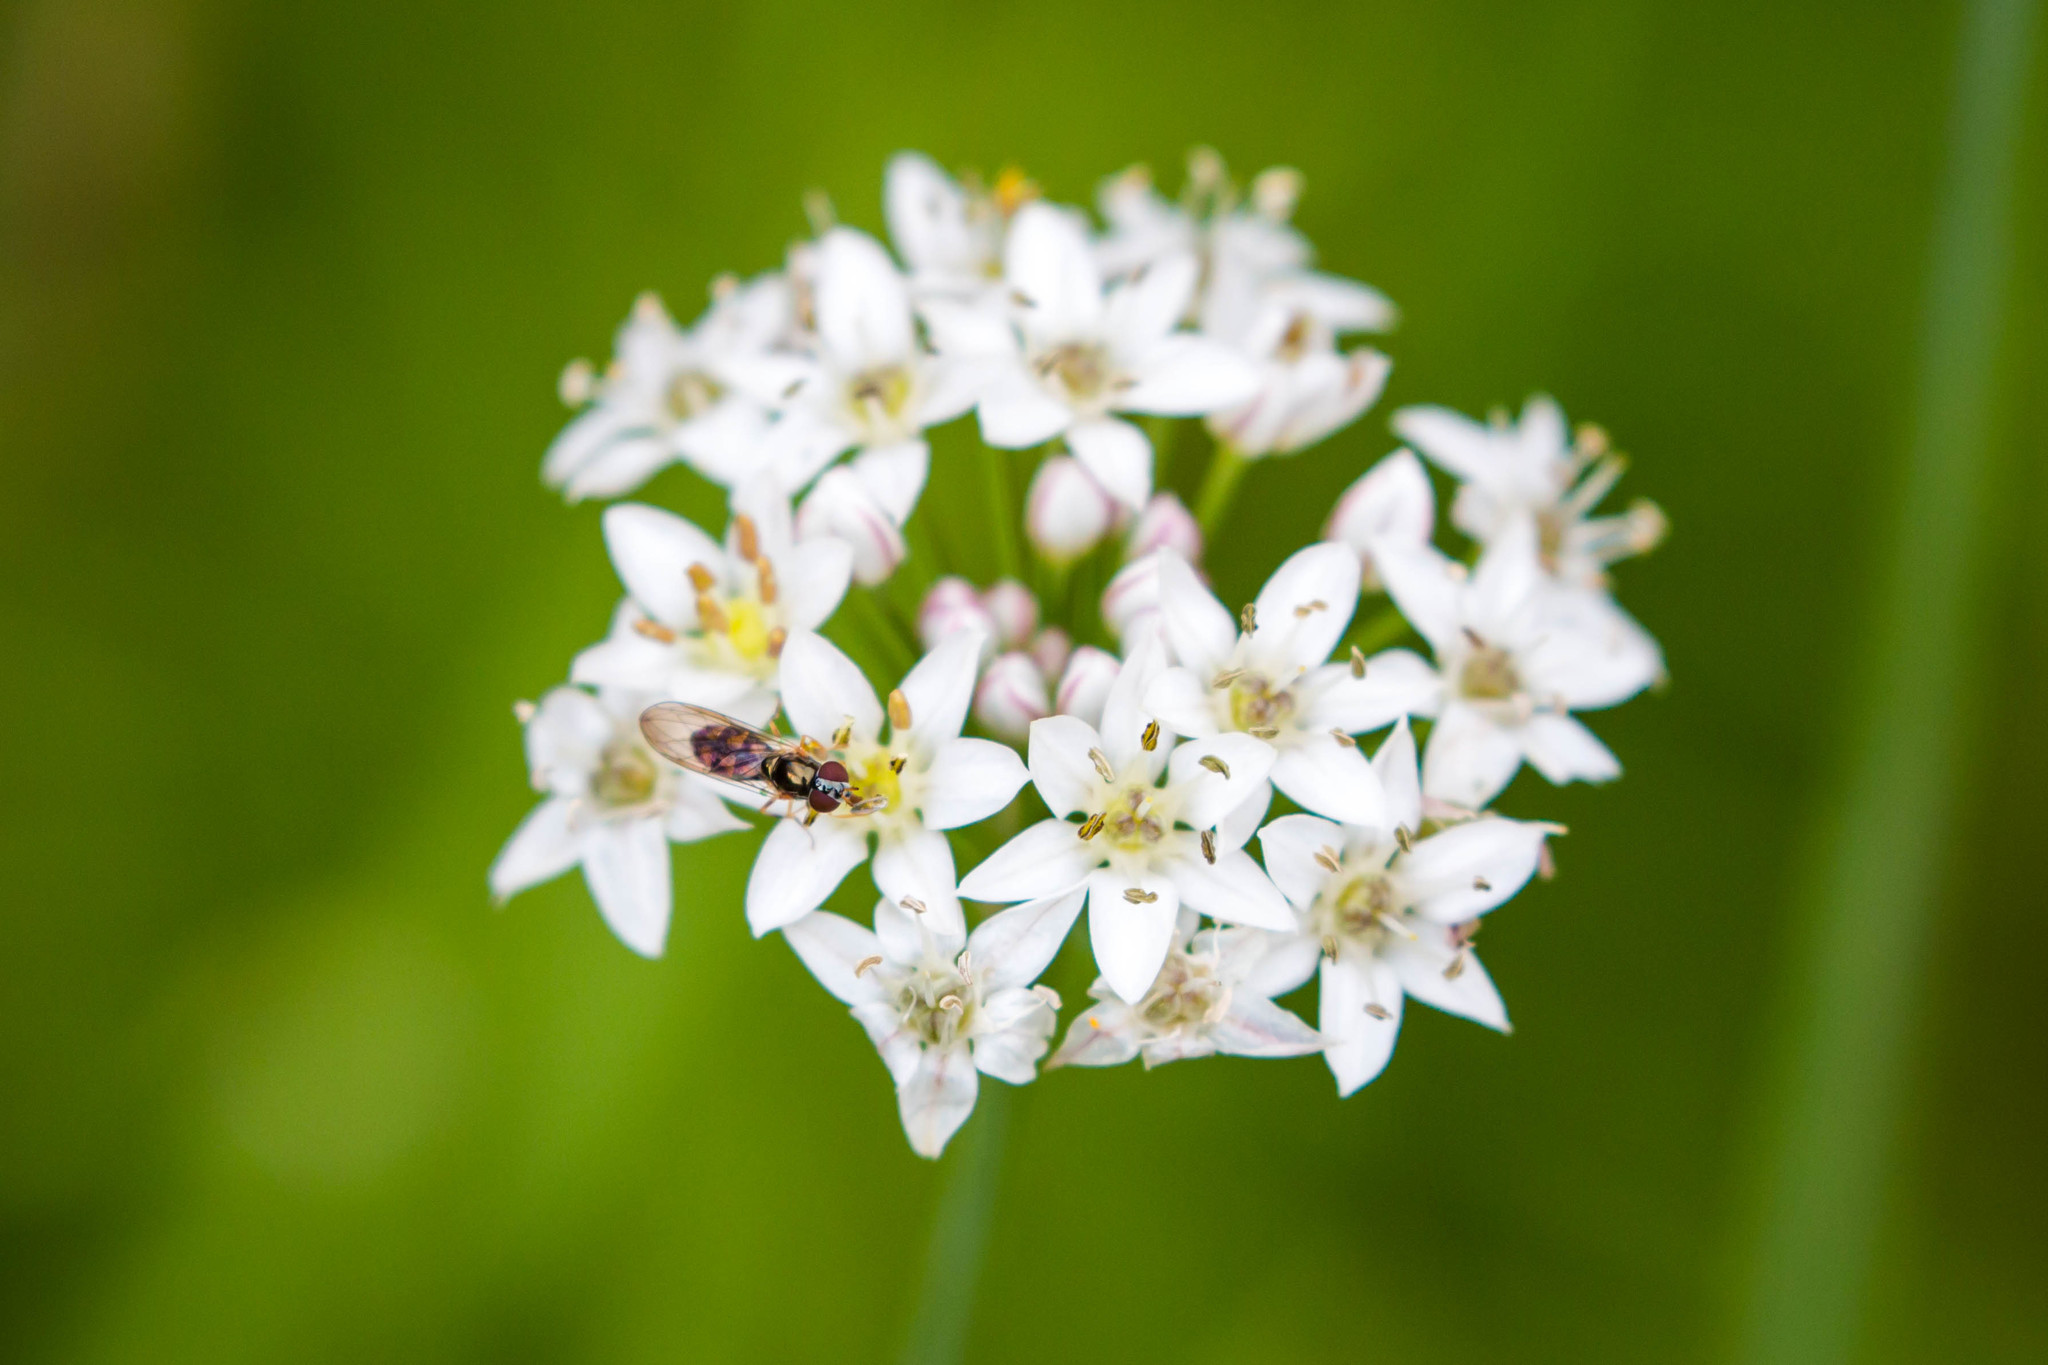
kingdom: Animalia
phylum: Arthropoda
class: Insecta
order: Diptera
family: Syrphidae
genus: Melanostoma
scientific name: Melanostoma mellina
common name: Hover fly
